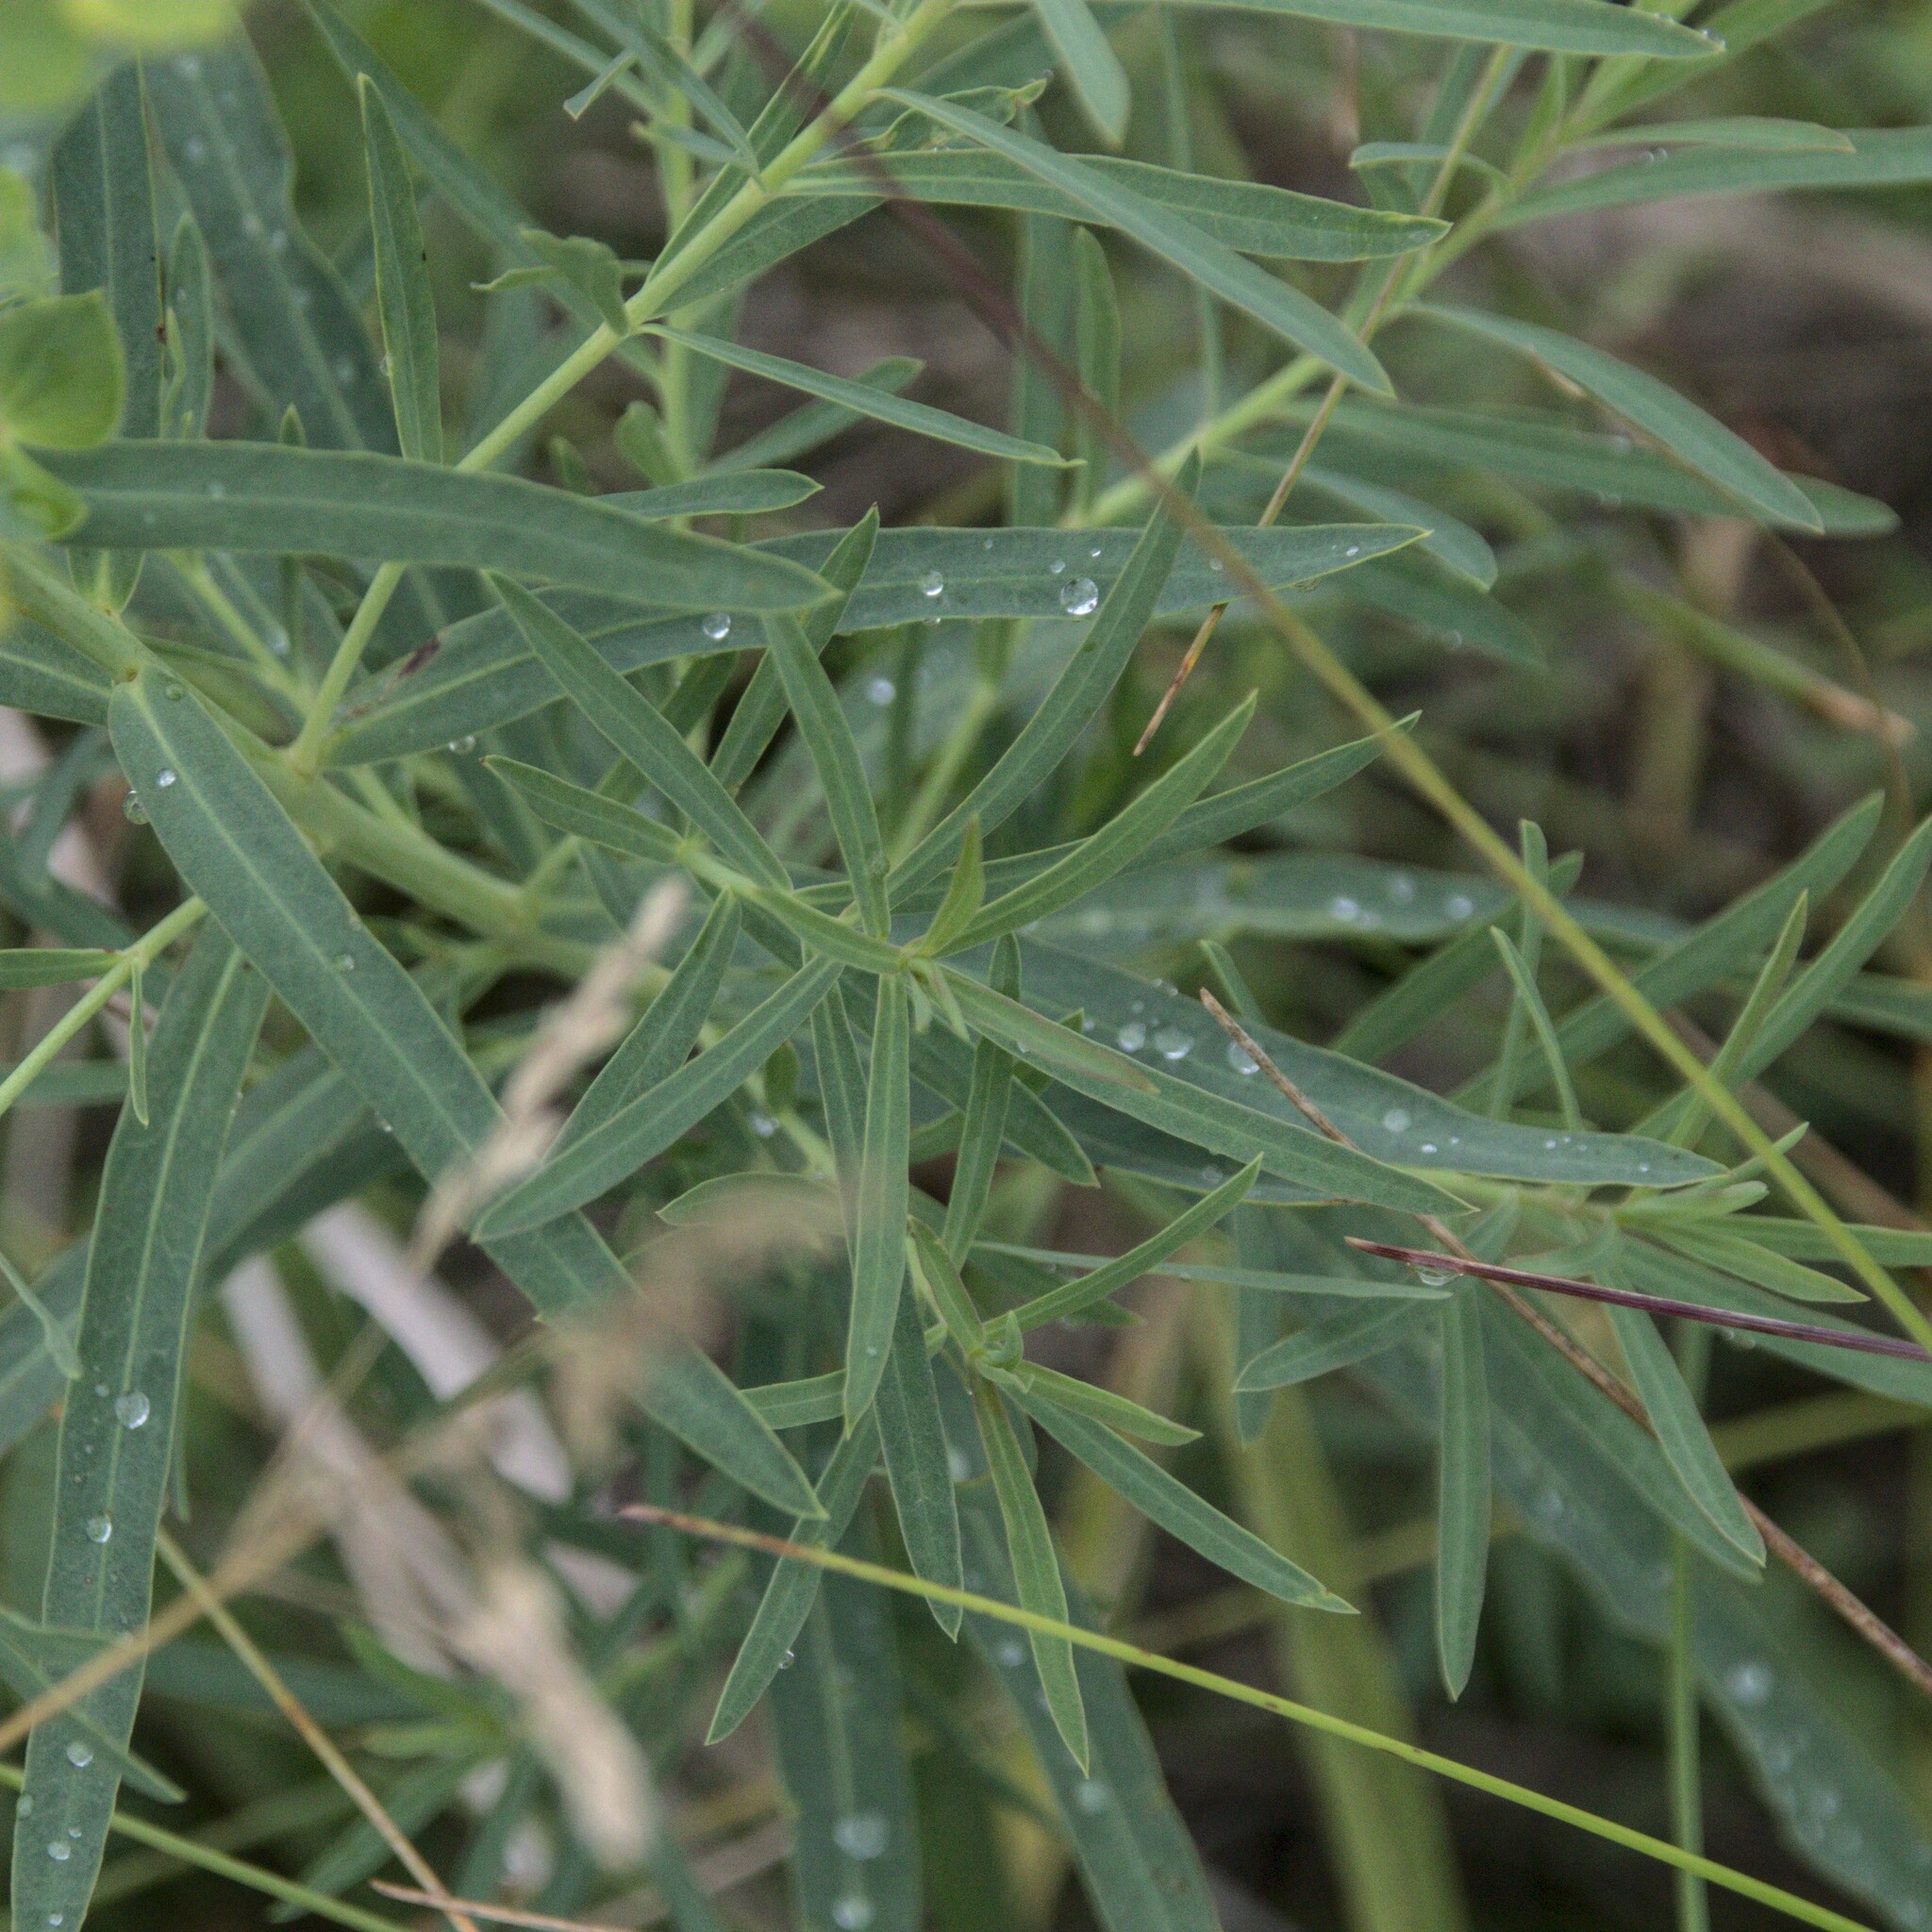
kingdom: Plantae
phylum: Tracheophyta
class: Magnoliopsida
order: Malpighiales
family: Euphorbiaceae
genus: Euphorbia
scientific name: Euphorbia virgata
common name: Leafy spurge
